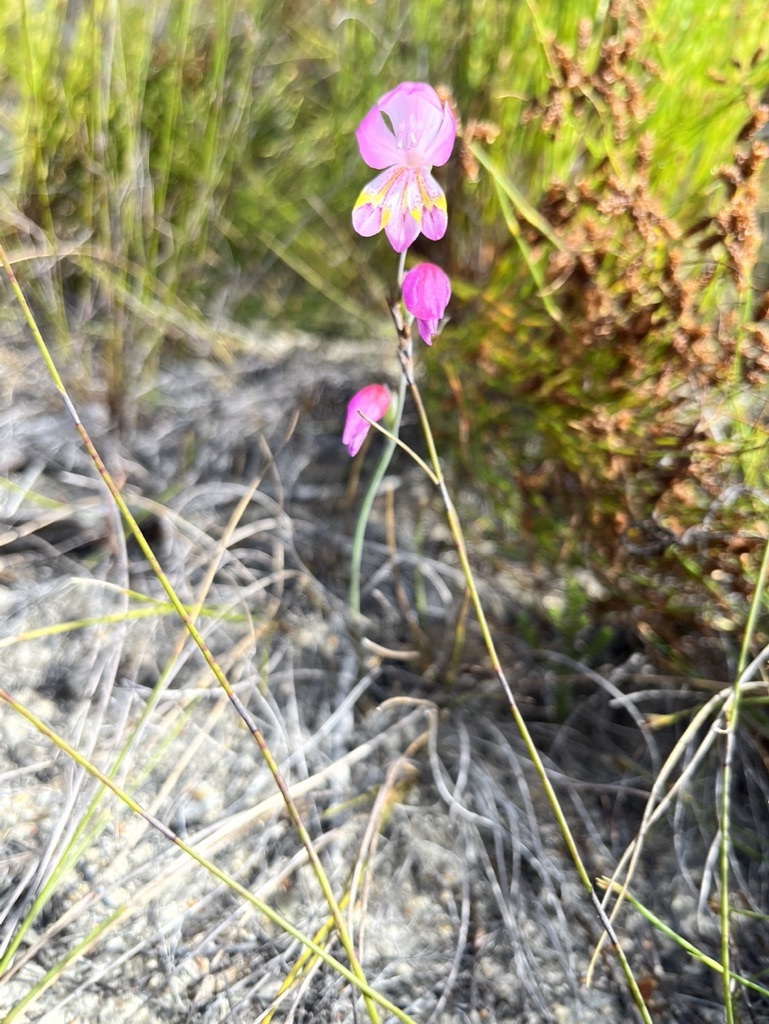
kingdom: Plantae
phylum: Tracheophyta
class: Liliopsida
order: Asparagales
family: Iridaceae
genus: Gladiolus
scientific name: Gladiolus brevifolius
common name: March pypie
